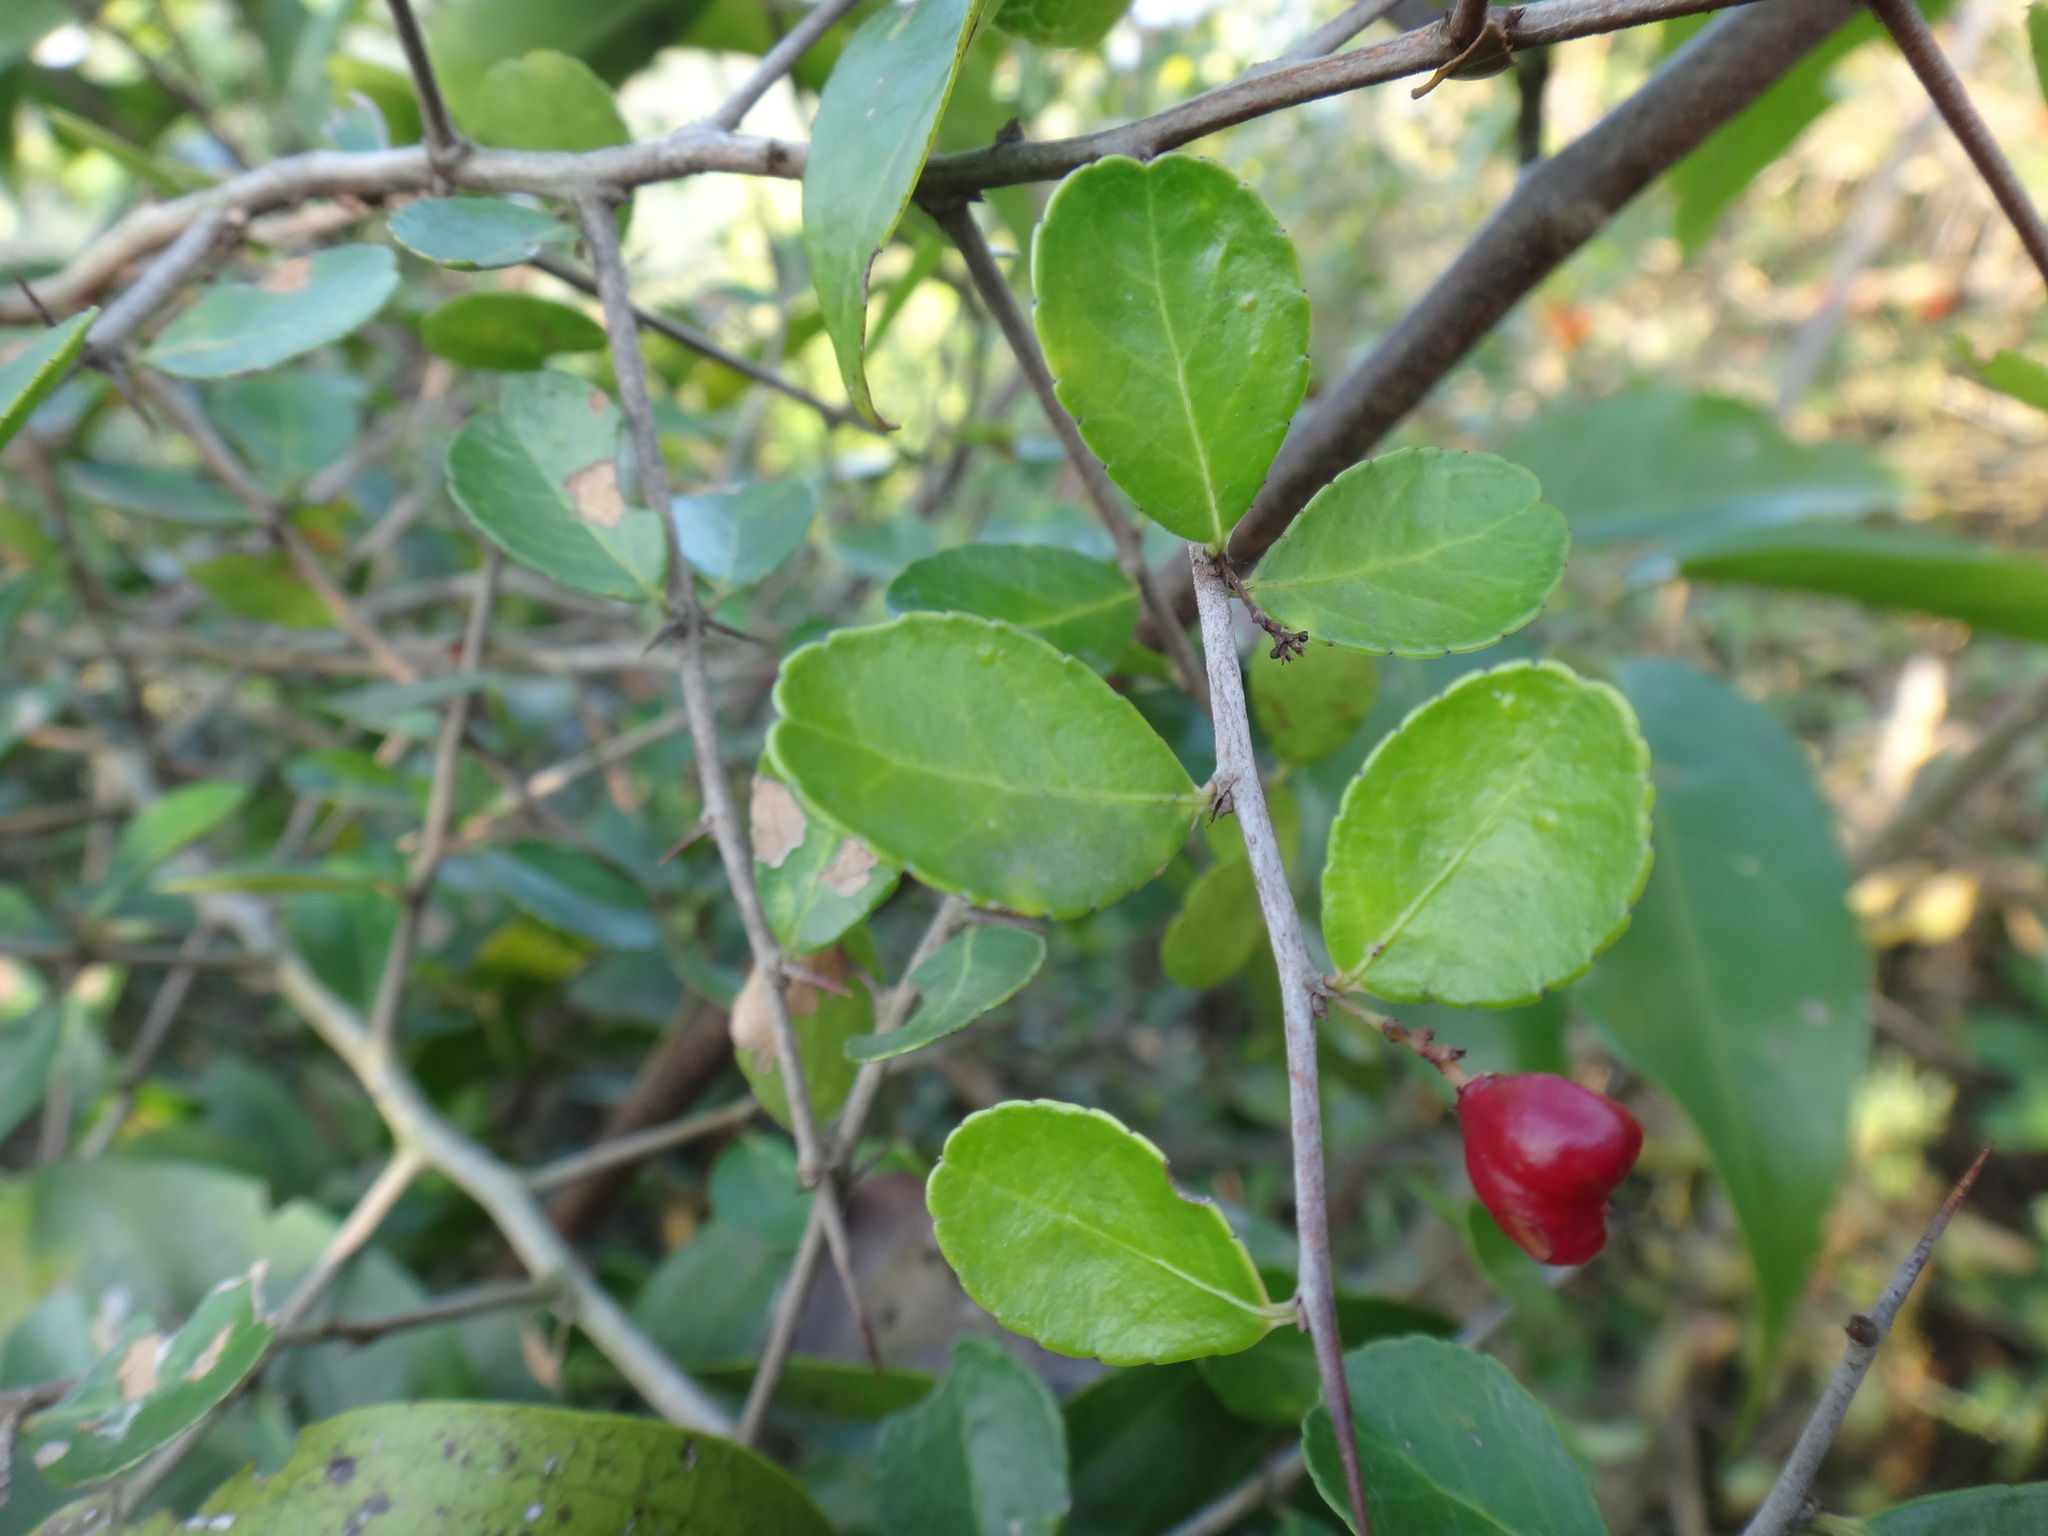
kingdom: Plantae
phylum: Tracheophyta
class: Magnoliopsida
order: Celastrales
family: Celastraceae
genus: Gymnosporia
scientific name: Gymnosporia diversifolia
